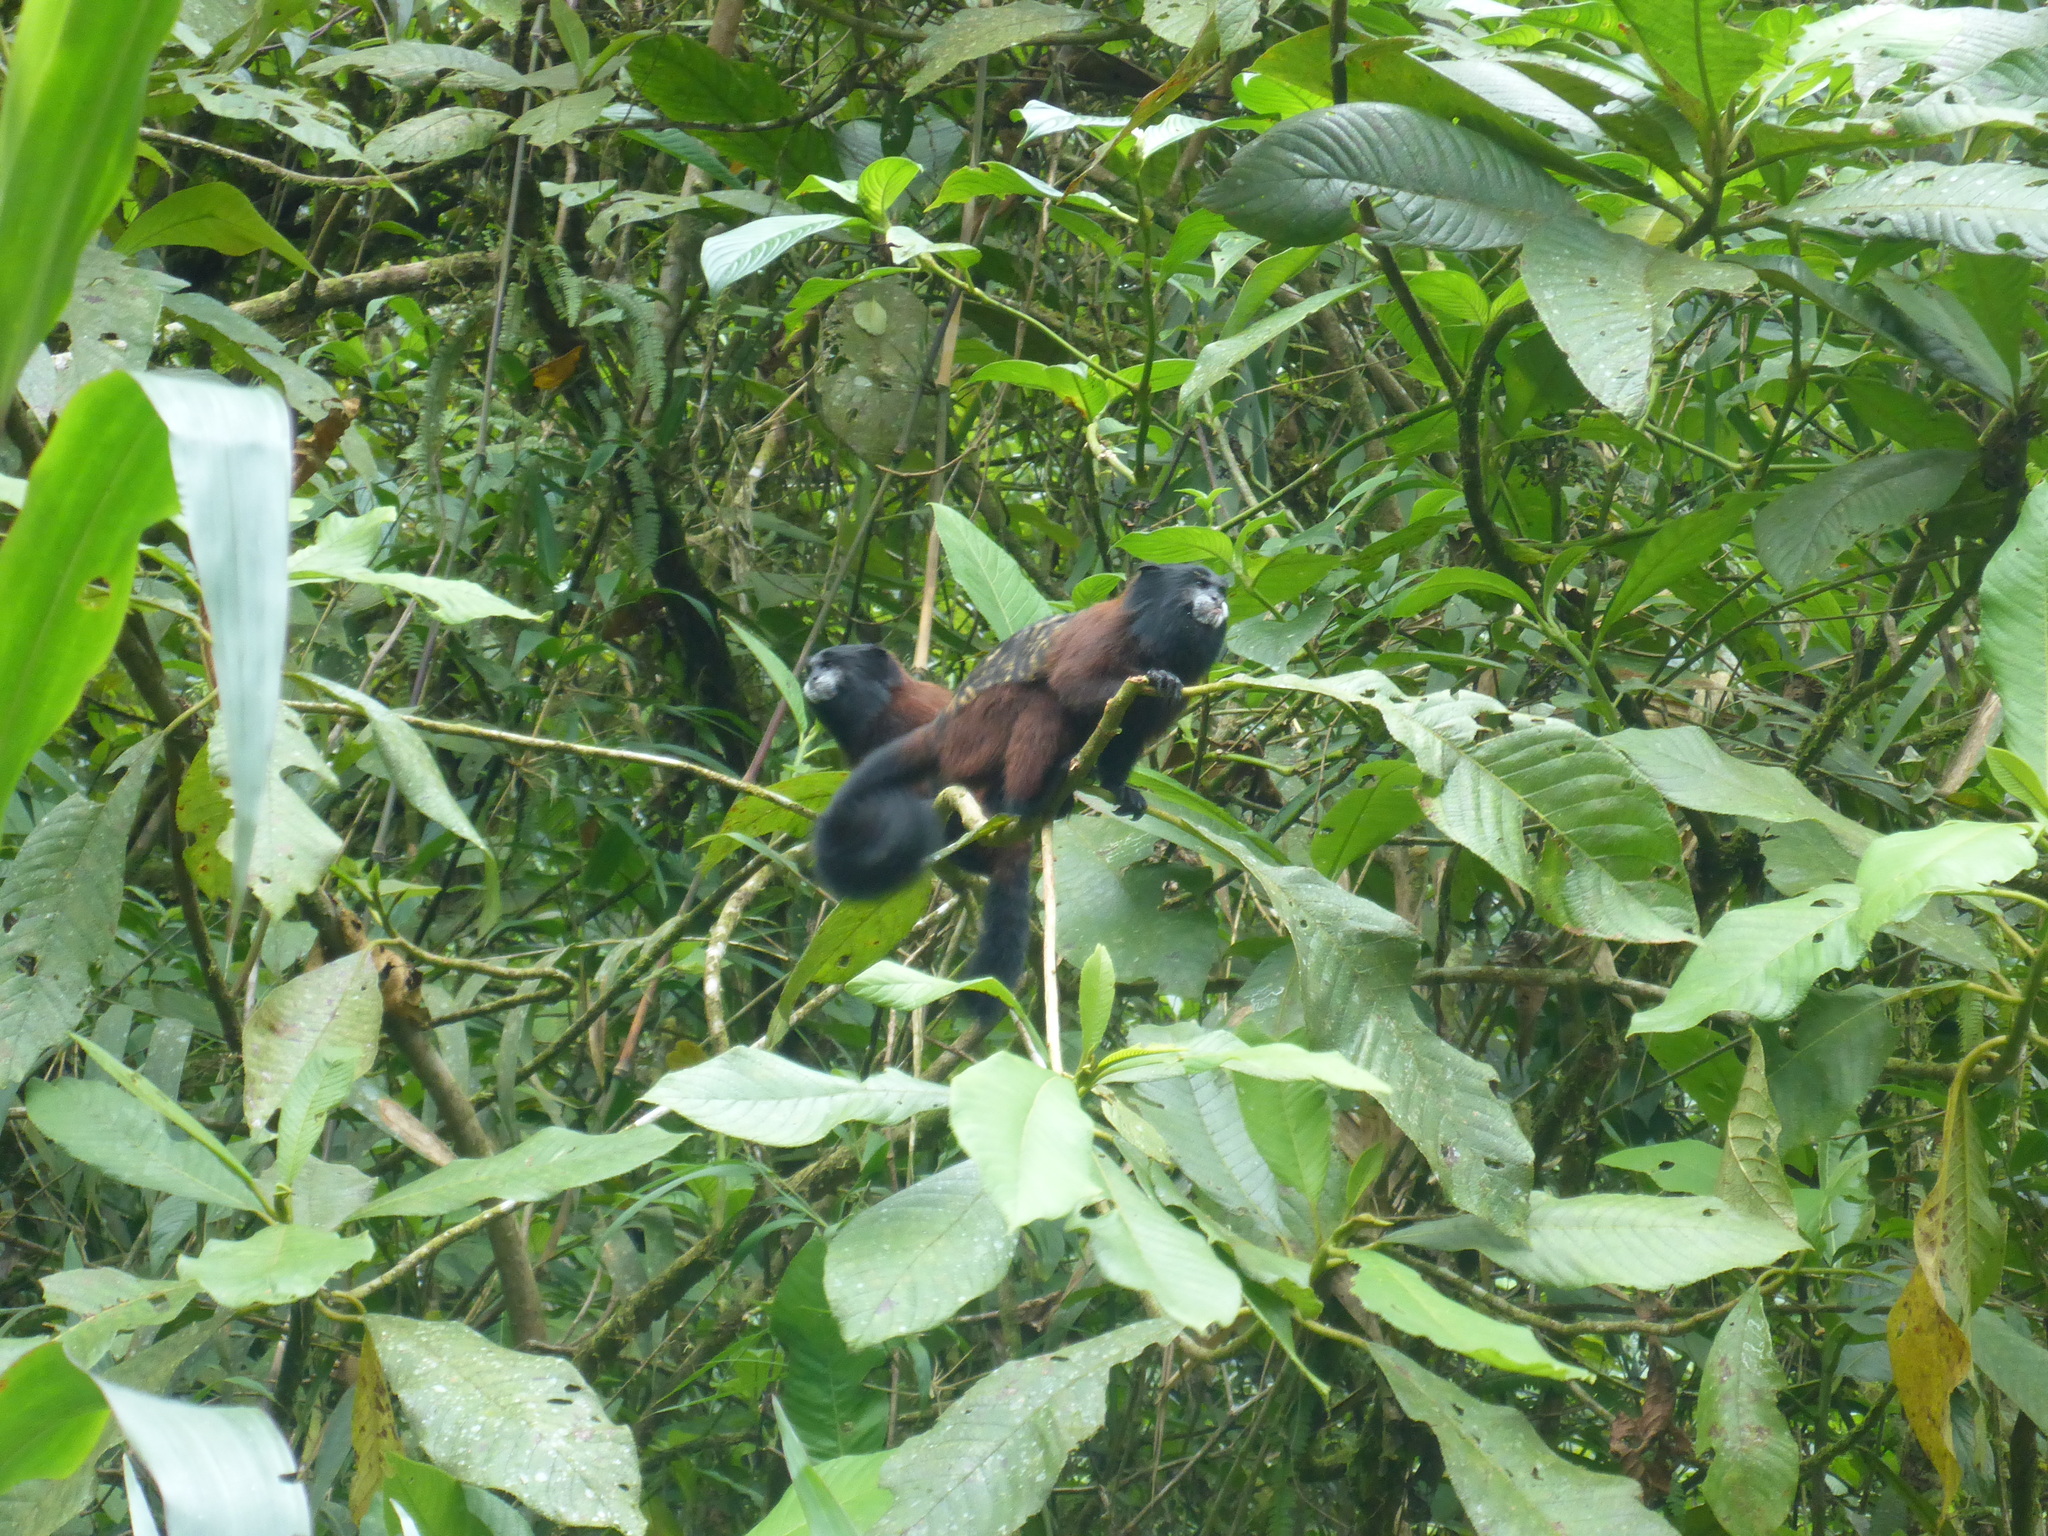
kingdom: Animalia
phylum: Chordata
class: Mammalia
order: Primates
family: Callitrichidae
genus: Leontocebus
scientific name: Leontocebus lagonotus
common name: Red-mantled saddle-back tamarin
